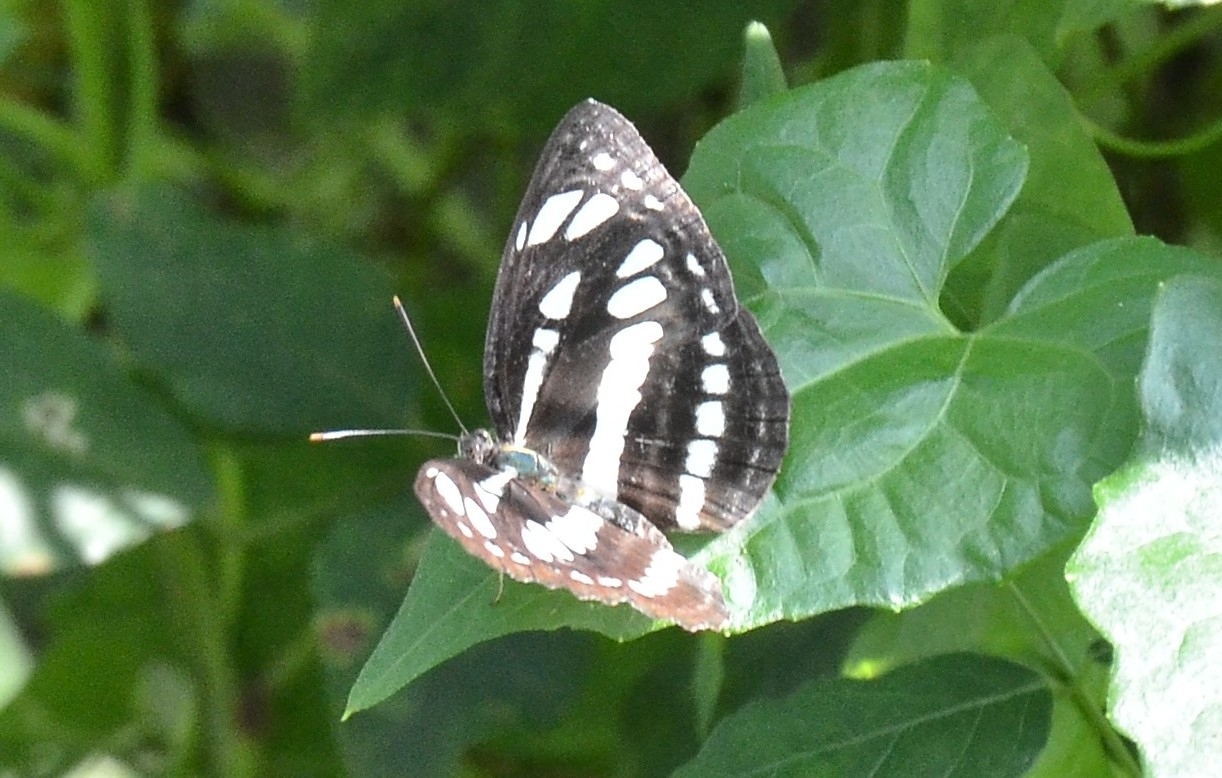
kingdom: Animalia
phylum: Arthropoda
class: Insecta
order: Lepidoptera
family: Nymphalidae
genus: Neptis
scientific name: Neptis hylas
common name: Common sailer
